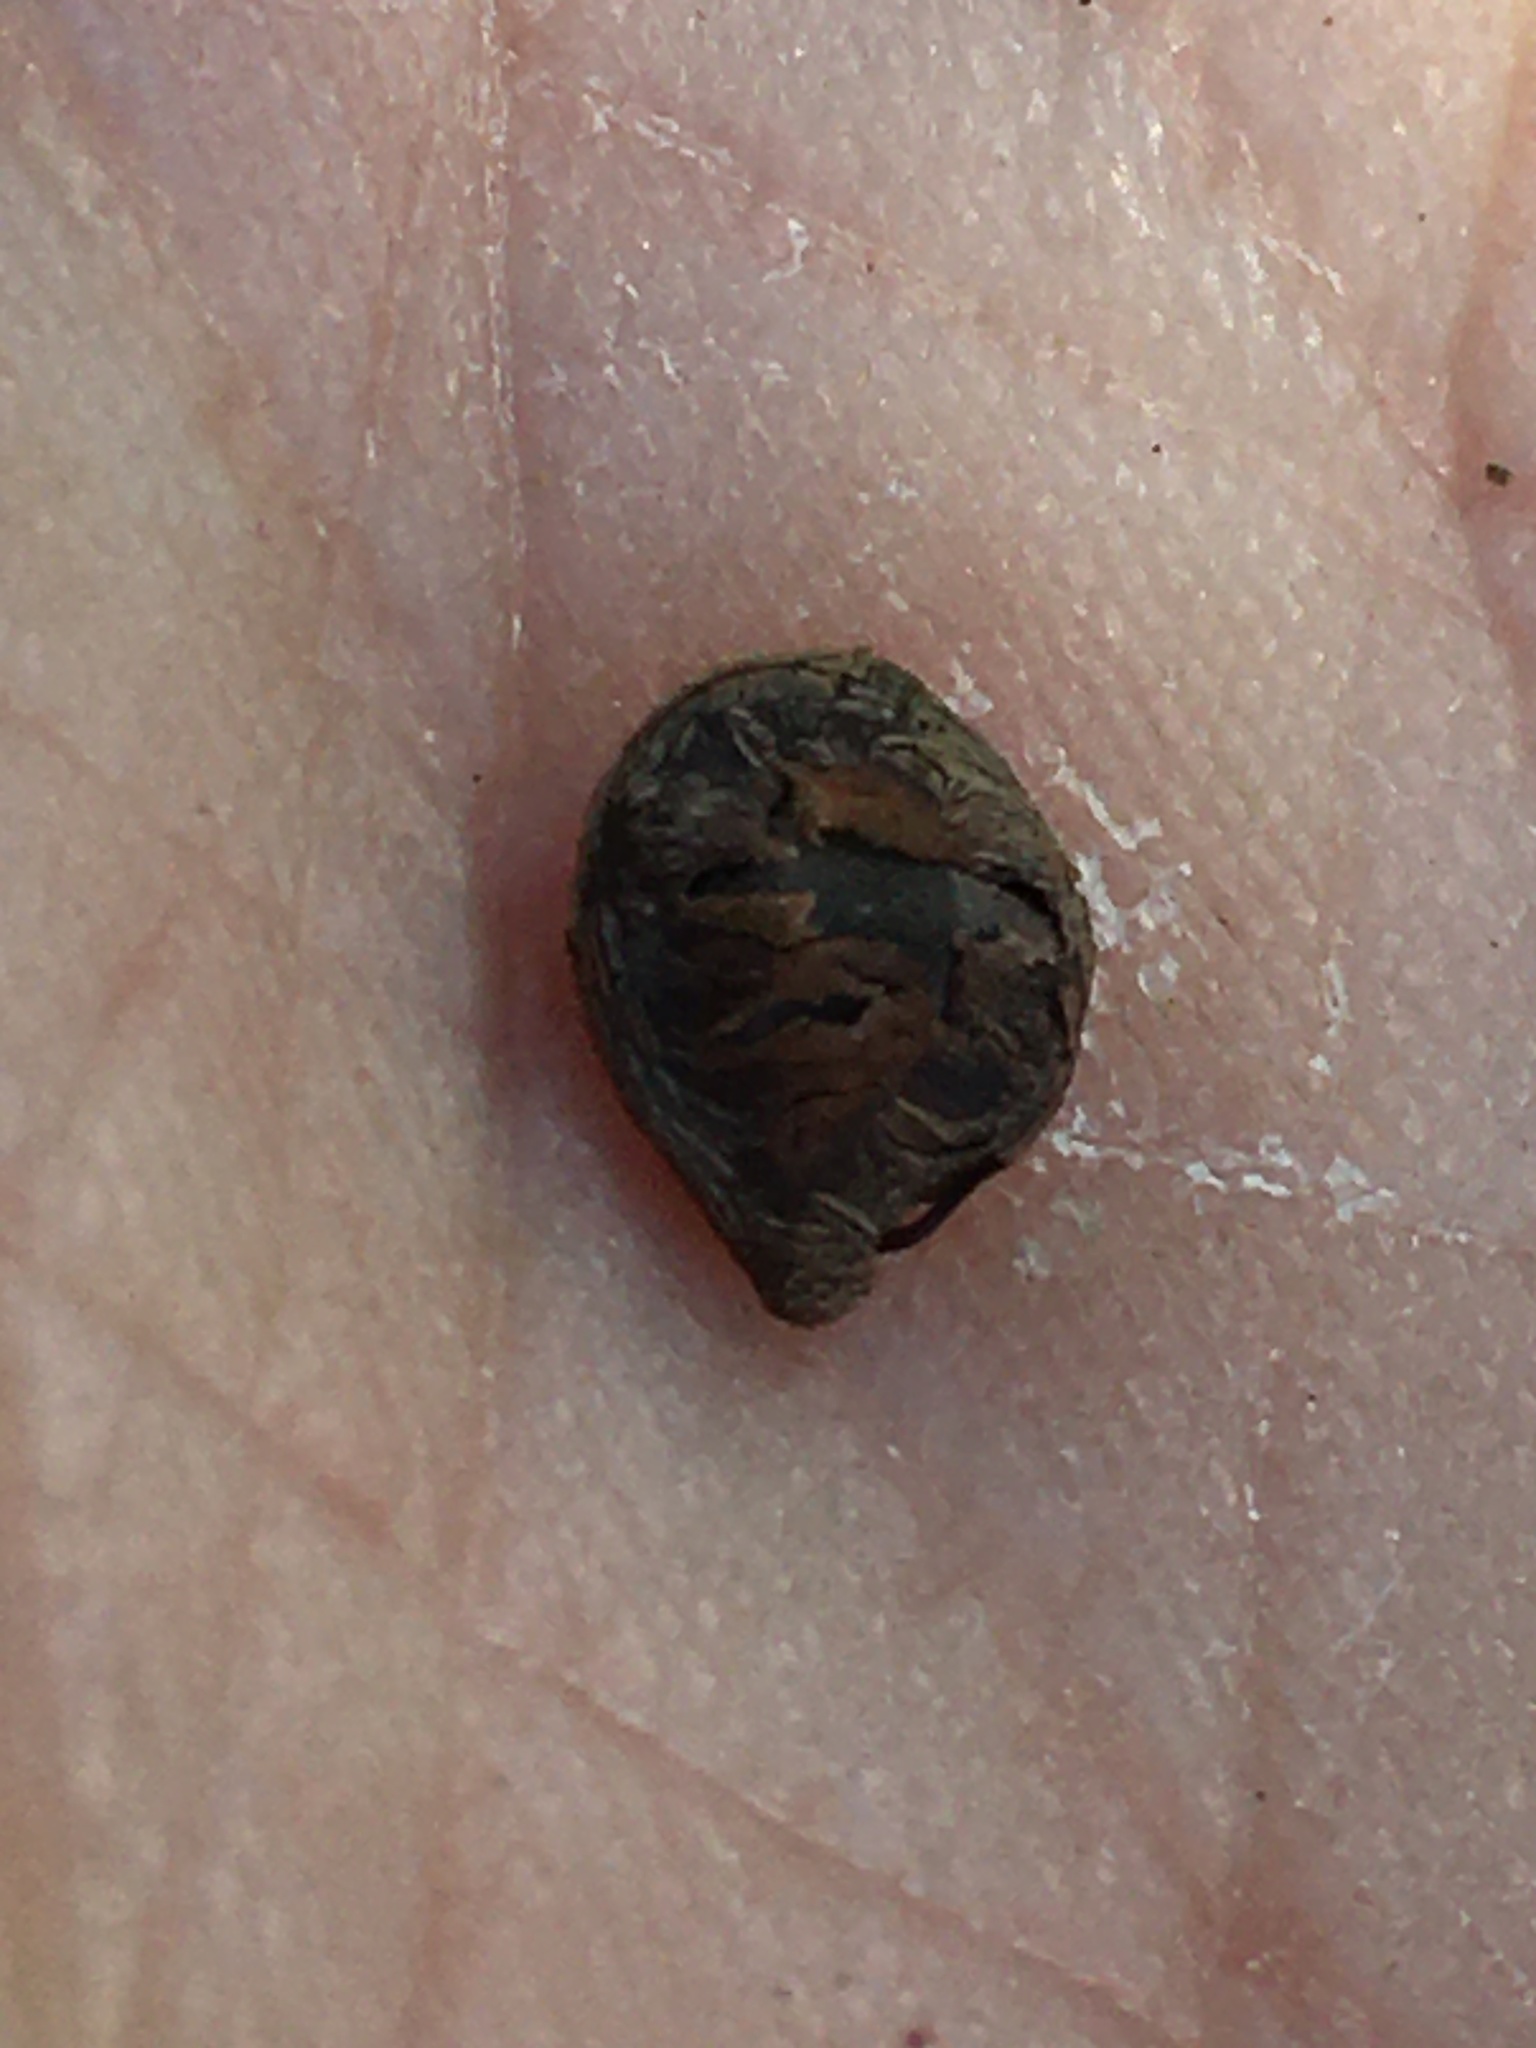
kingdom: Plantae
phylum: Tracheophyta
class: Magnoliopsida
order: Fabales
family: Fabaceae
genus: Senna
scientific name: Senna hebecarpa
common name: Wild senna
